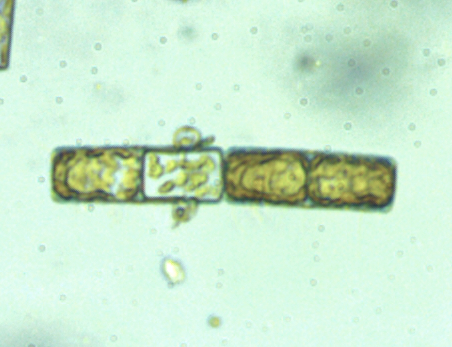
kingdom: Chromista
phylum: Ochrophyta
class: Bacillariophyceae
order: Melosirales
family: Melosiraceae
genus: Melosira
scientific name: Melosira varians
